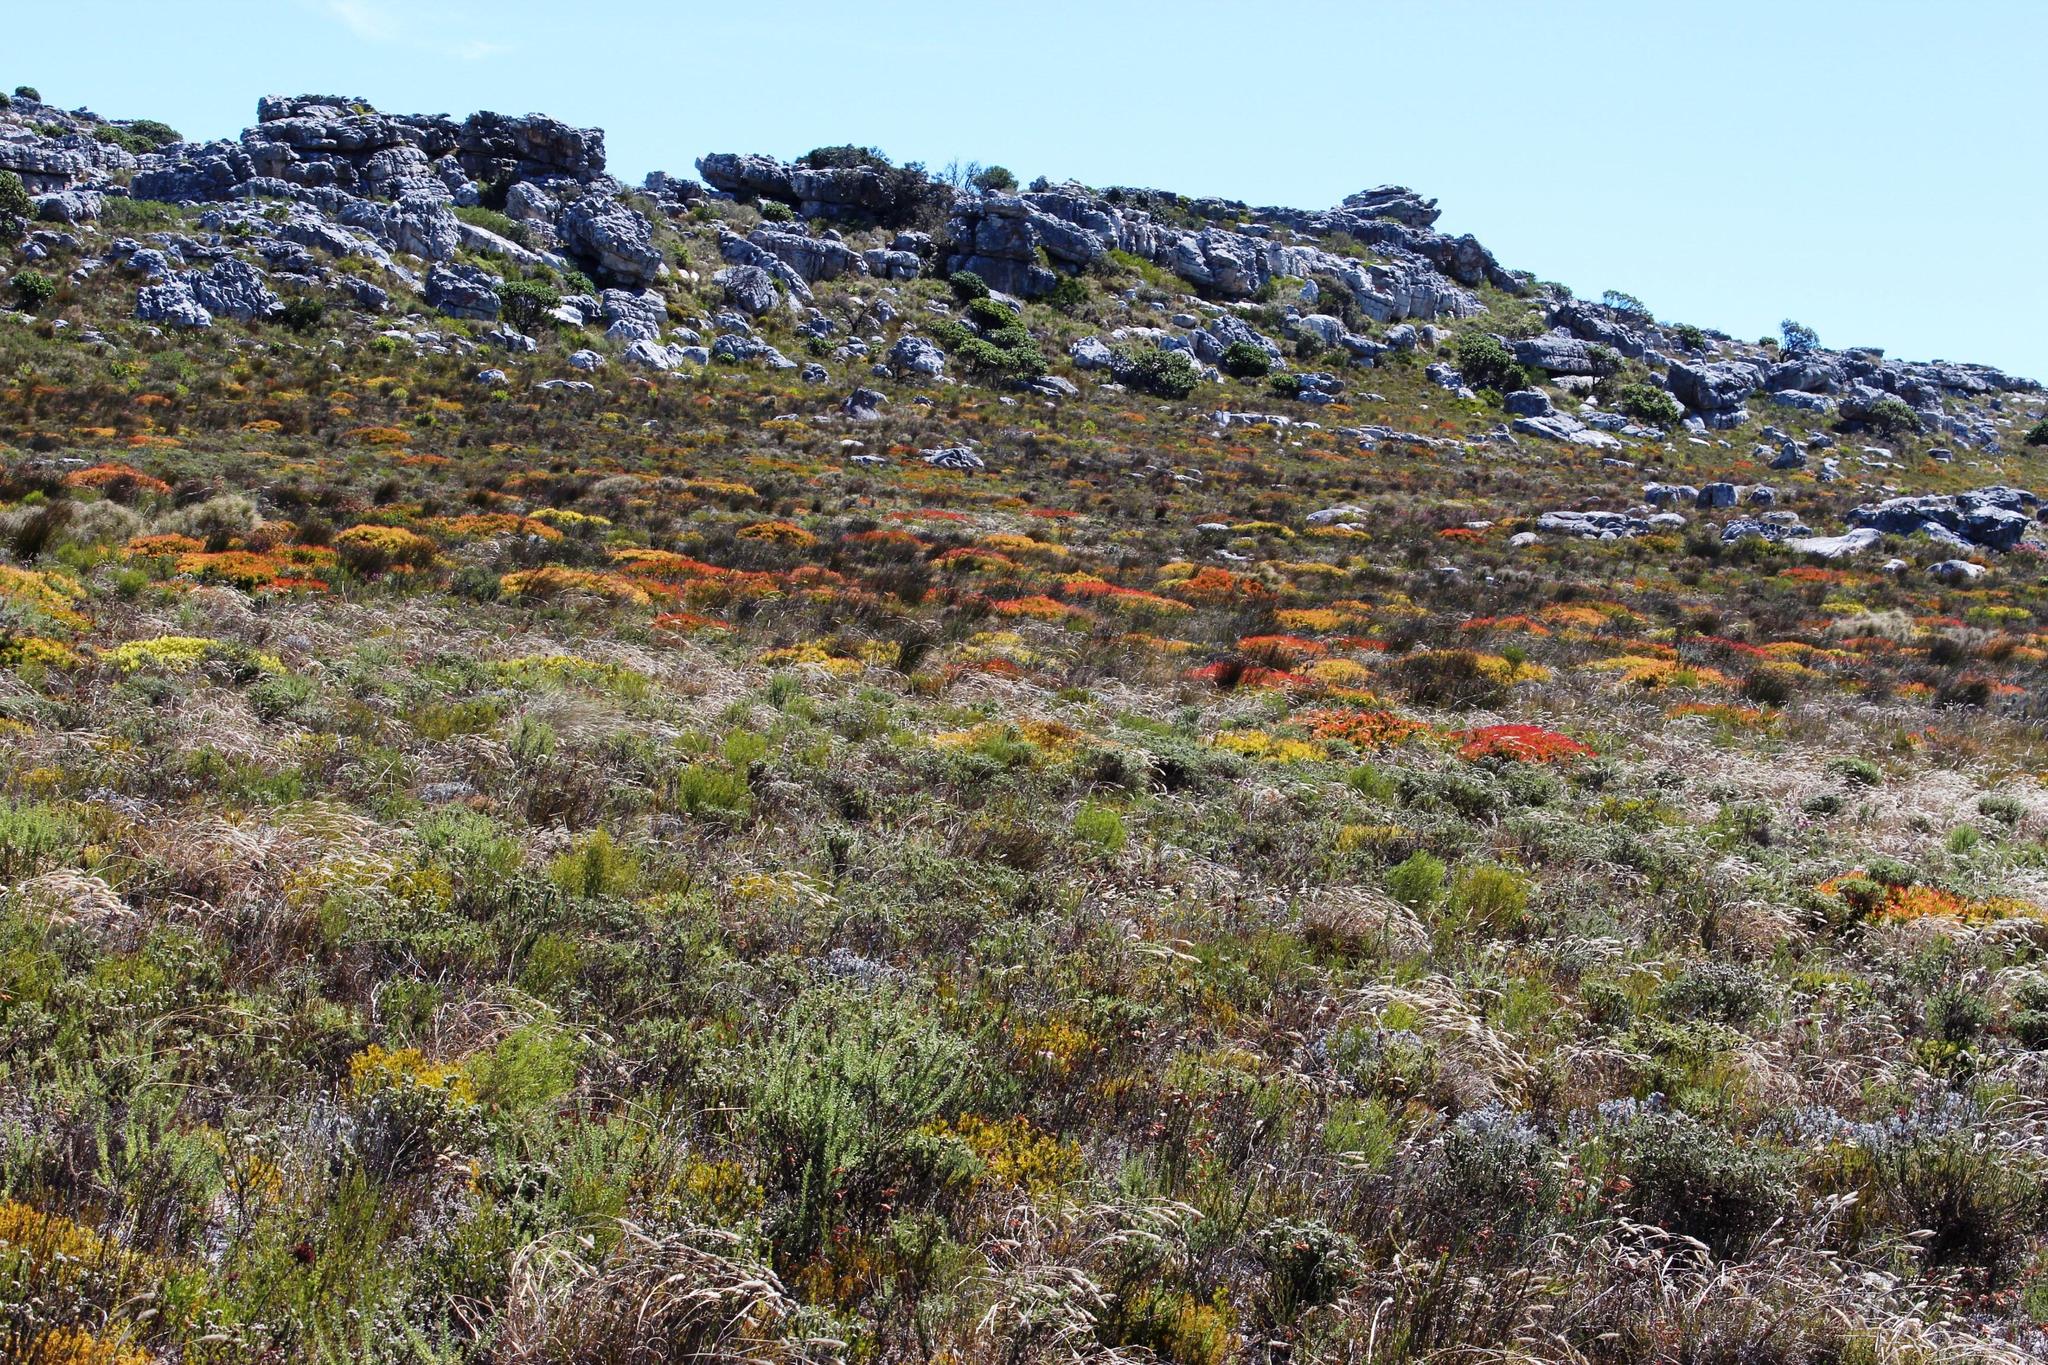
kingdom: Plantae
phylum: Tracheophyta
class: Magnoliopsida
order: Proteales
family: Proteaceae
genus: Leucadendron
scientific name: Leucadendron salignum
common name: Common sunshine conebush
